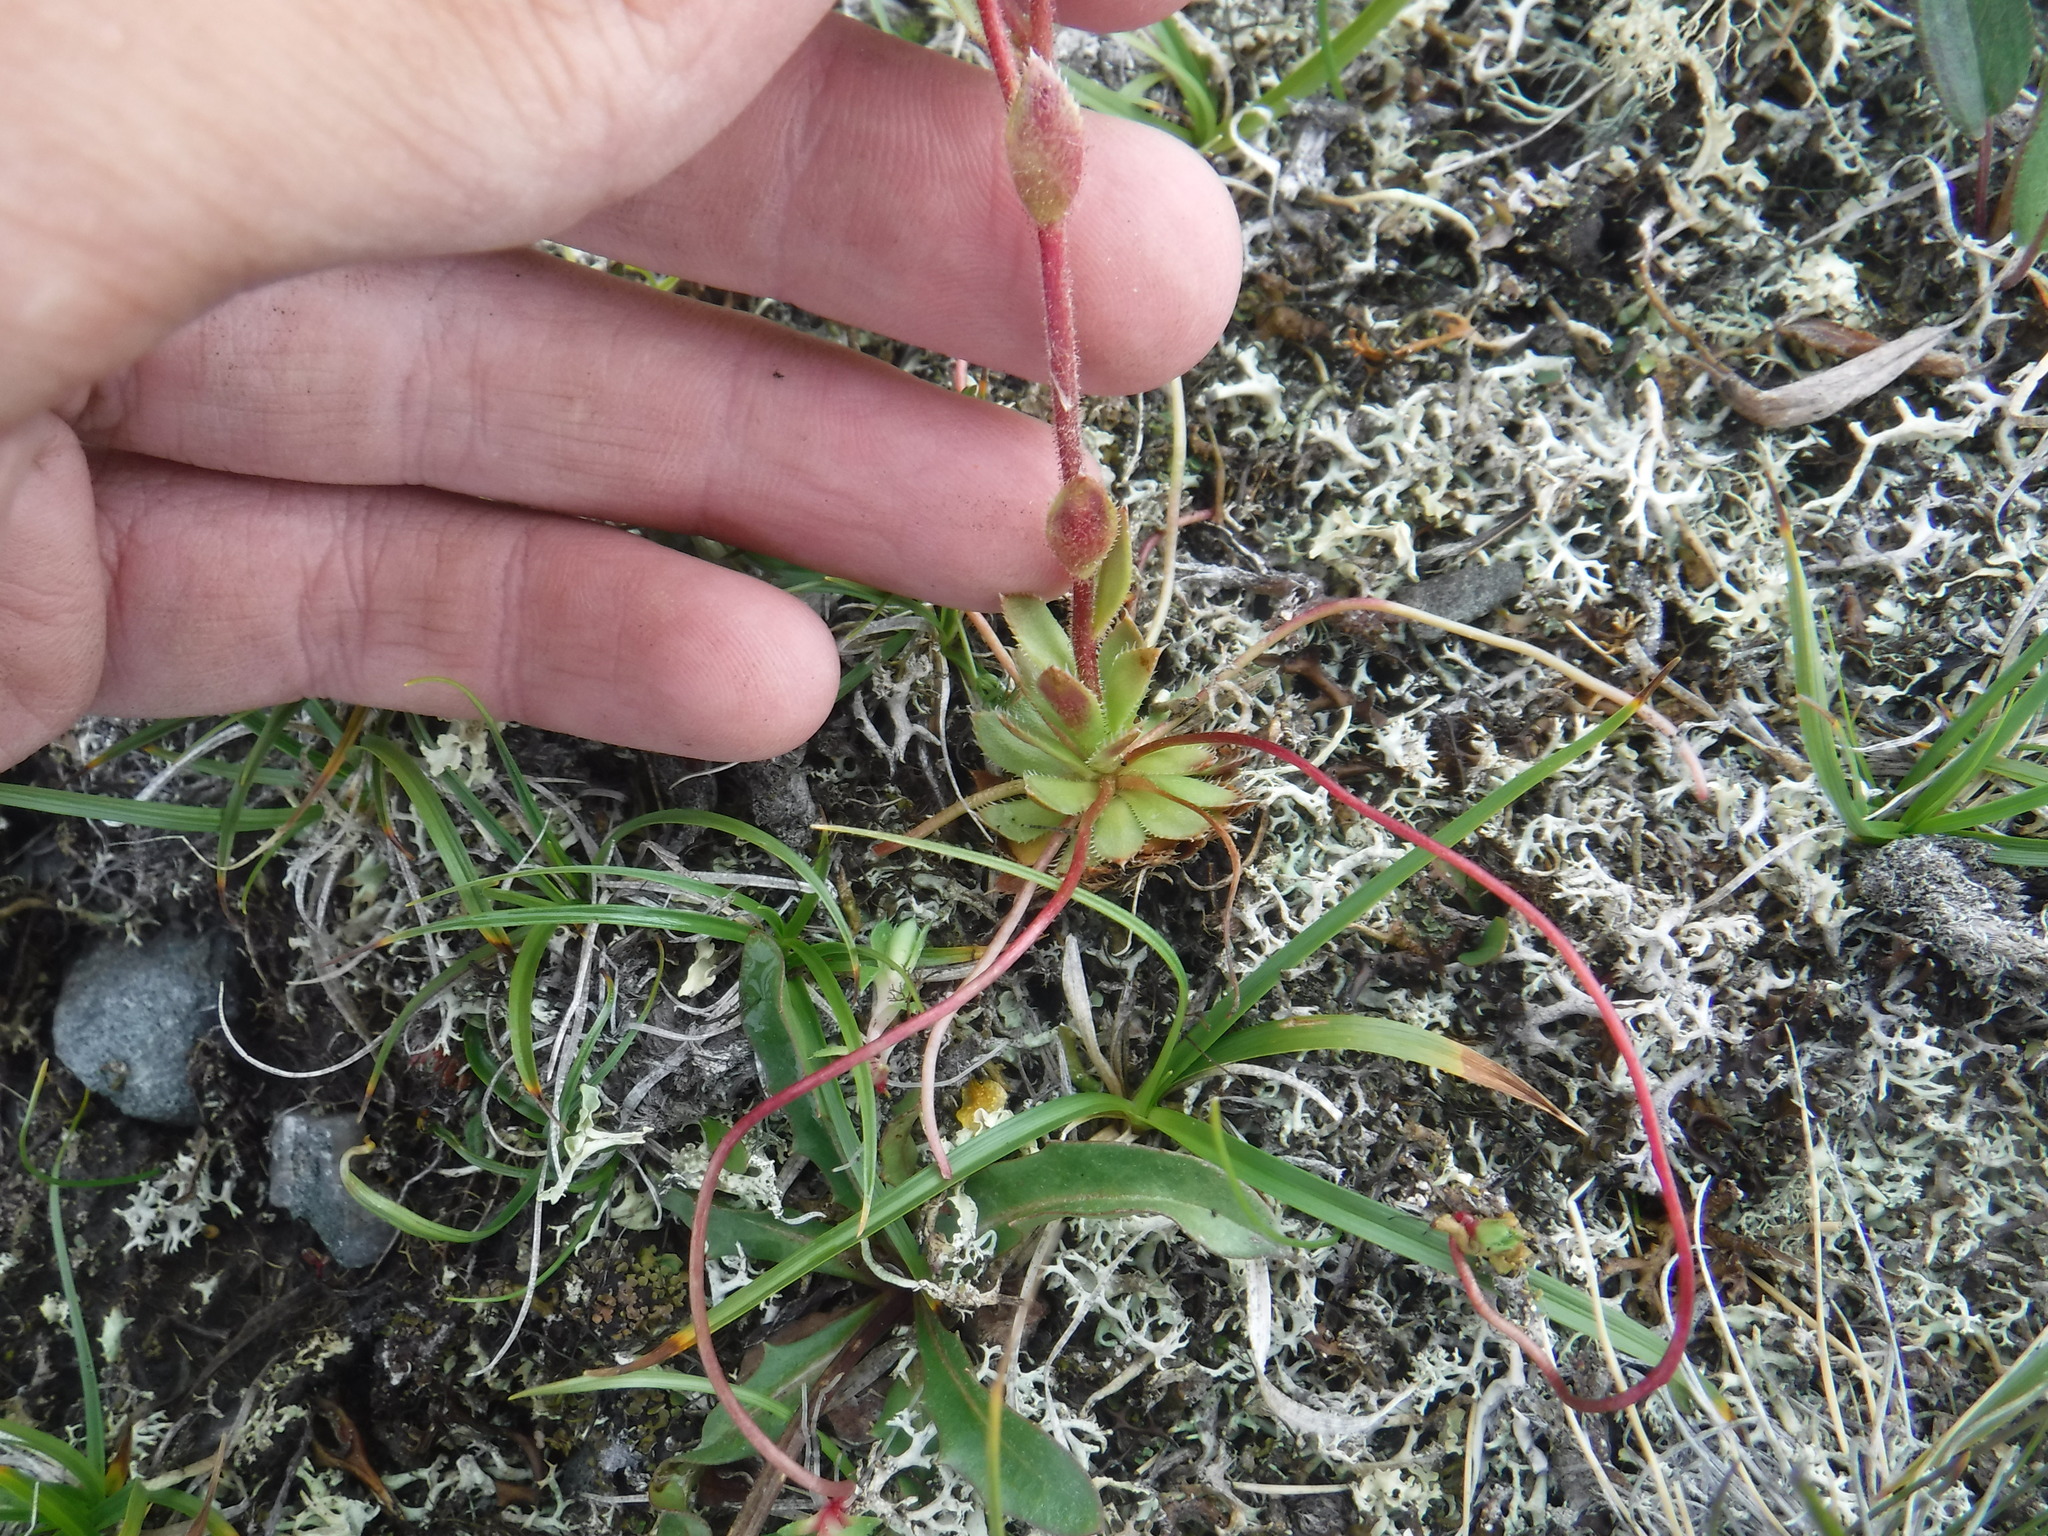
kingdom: Plantae
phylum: Tracheophyta
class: Magnoliopsida
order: Saxifragales
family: Saxifragaceae
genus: Saxifraga
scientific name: Saxifraga flagellaris
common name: Spider saxifrage
